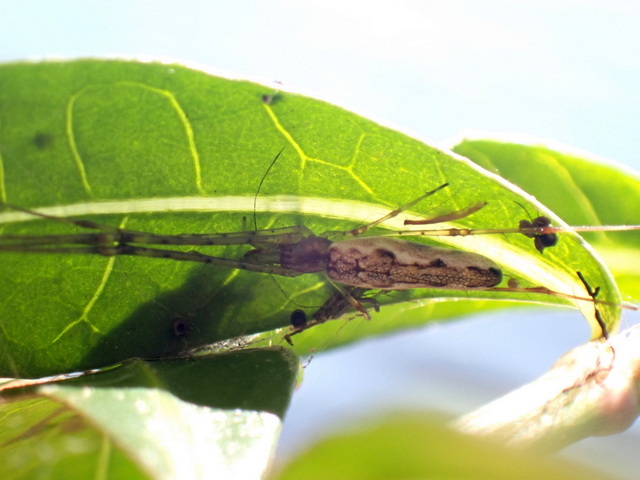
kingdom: Animalia
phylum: Arthropoda
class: Arachnida
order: Araneae
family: Tetragnathidae
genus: Tetragnatha
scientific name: Tetragnatha elongata
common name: Longjawed orb weavers
